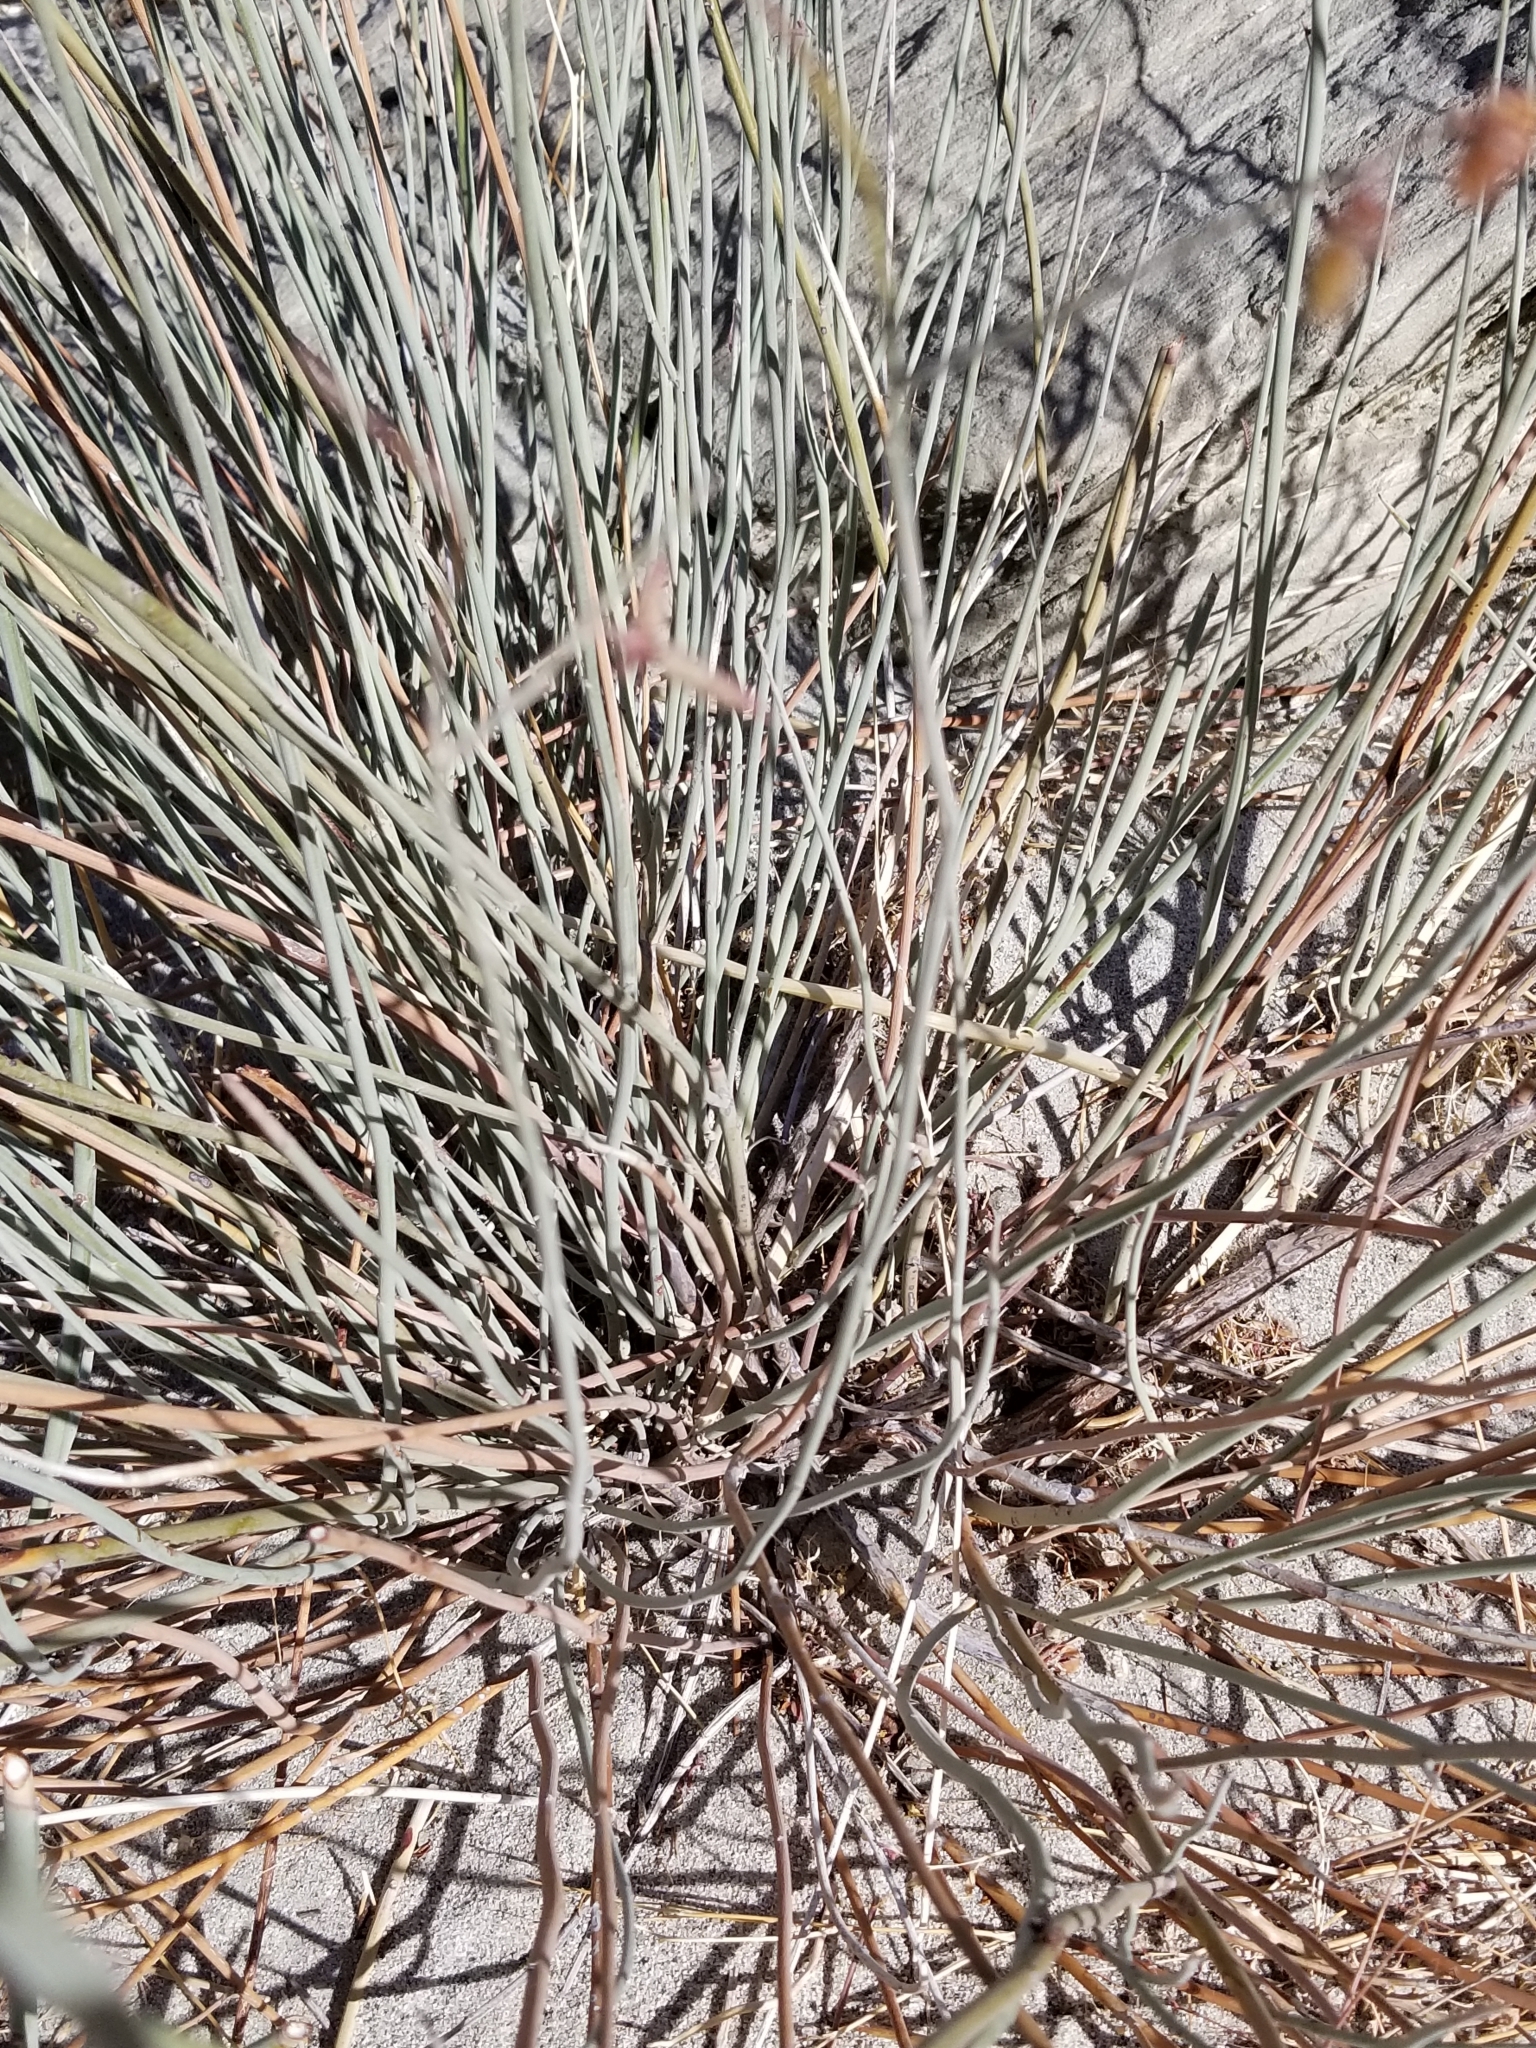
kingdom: Plantae
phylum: Tracheophyta
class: Magnoliopsida
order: Fabales
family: Fabaceae
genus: Hoffmannseggia
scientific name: Hoffmannseggia microphylla
